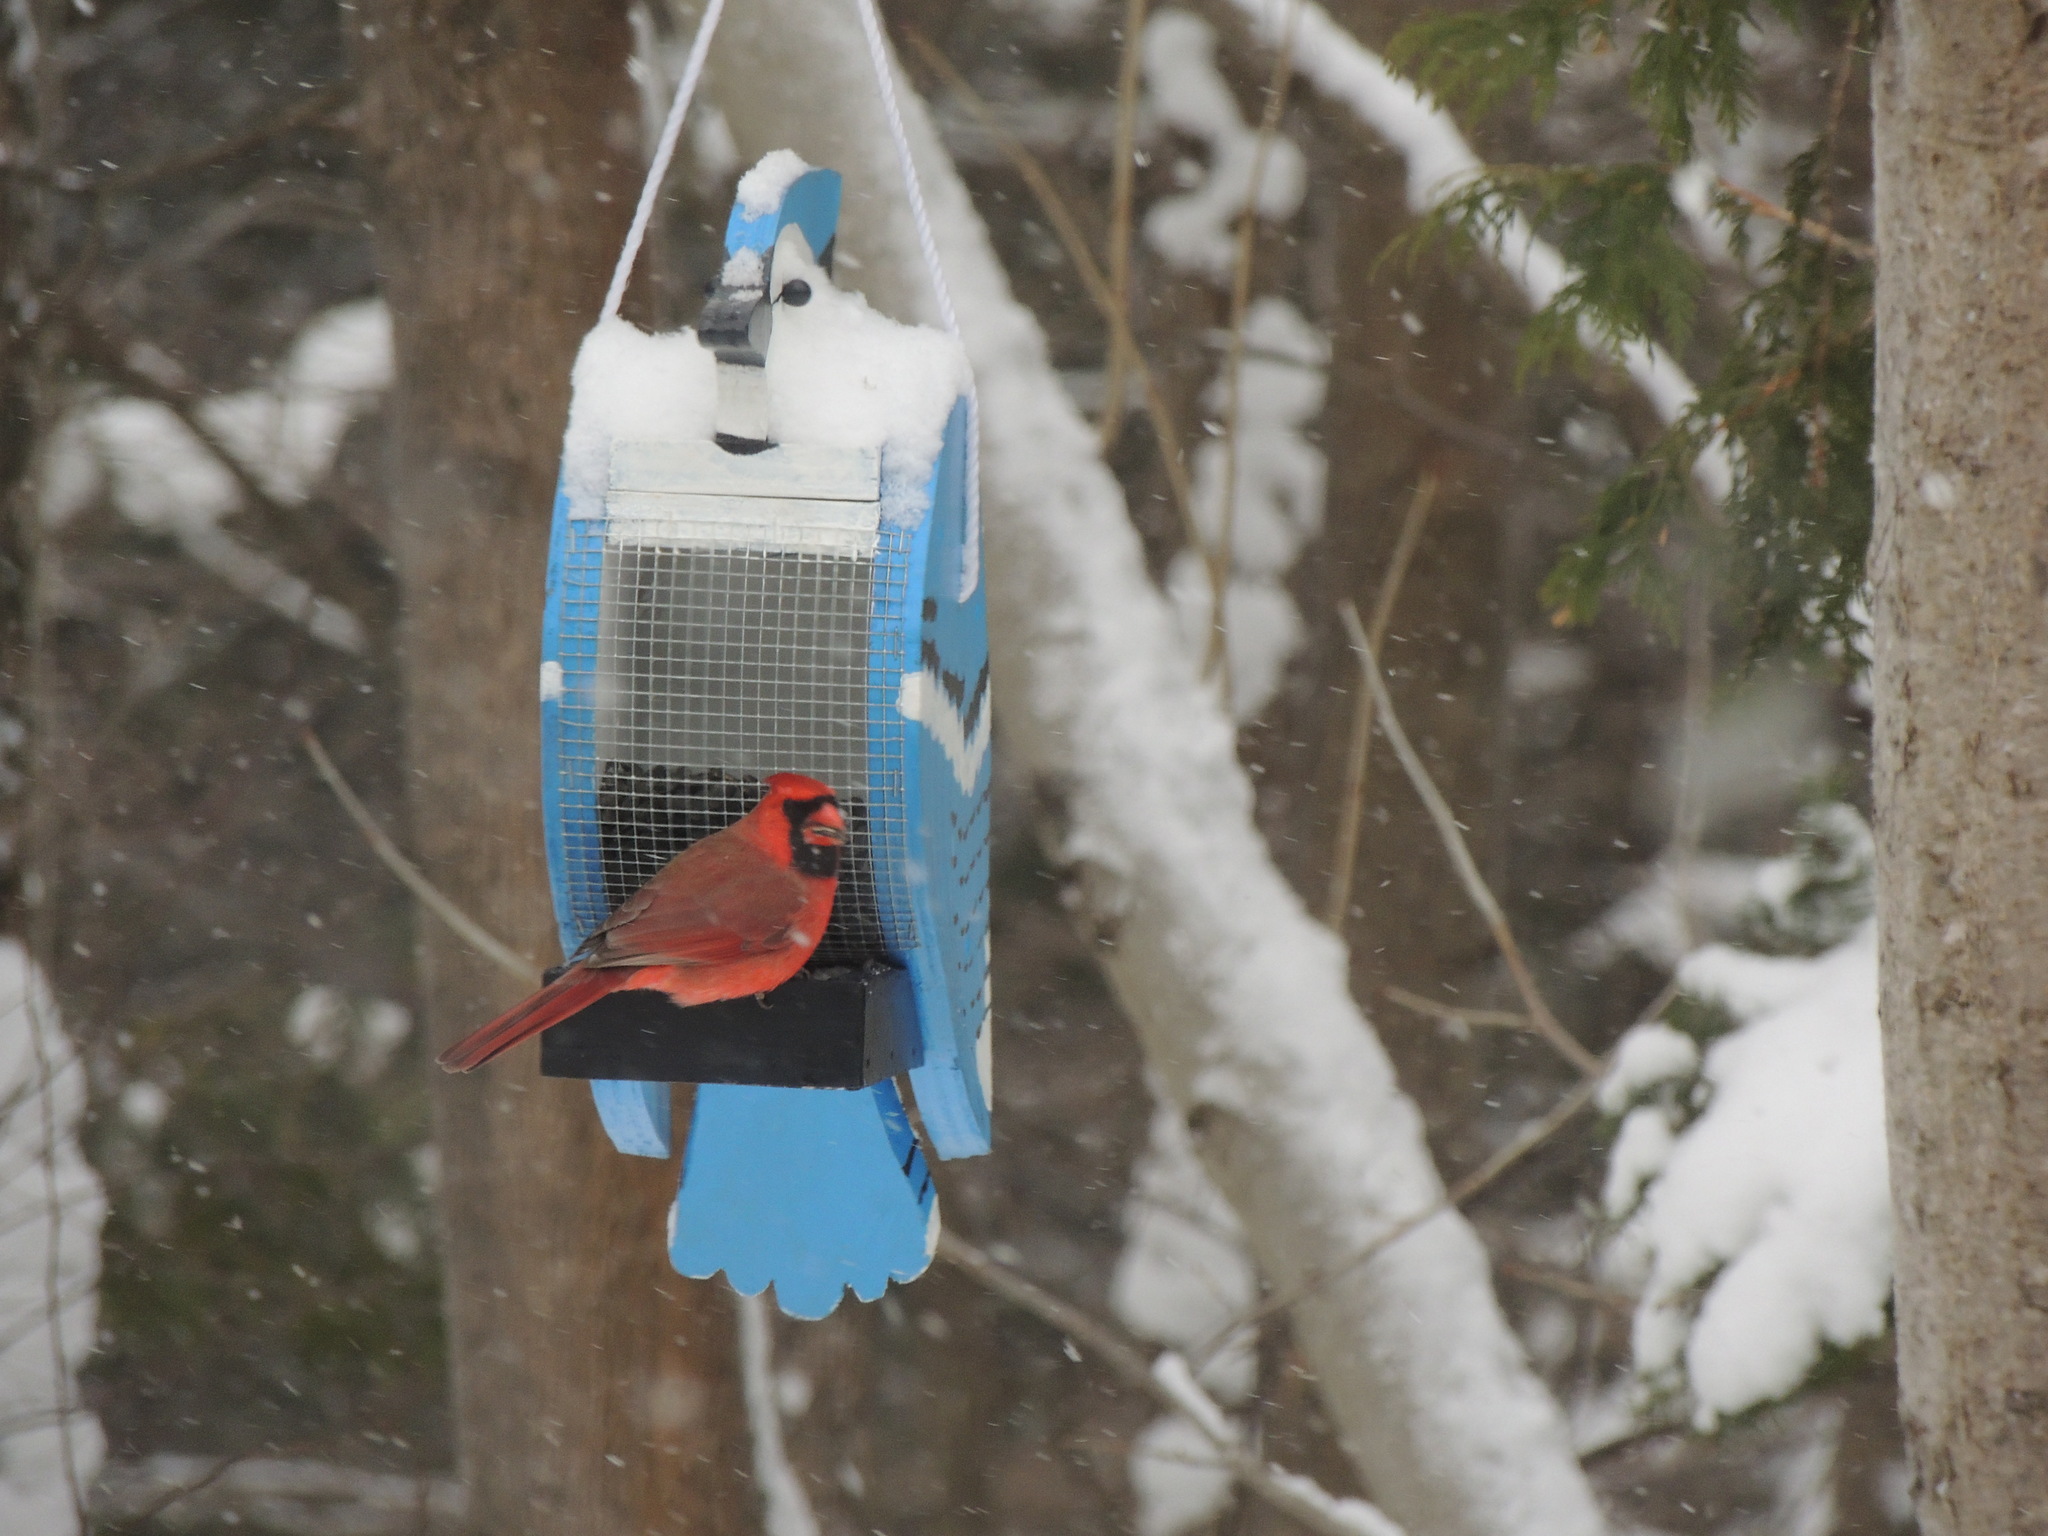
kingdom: Animalia
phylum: Chordata
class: Aves
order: Passeriformes
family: Cardinalidae
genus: Cardinalis
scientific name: Cardinalis cardinalis
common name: Northern cardinal
